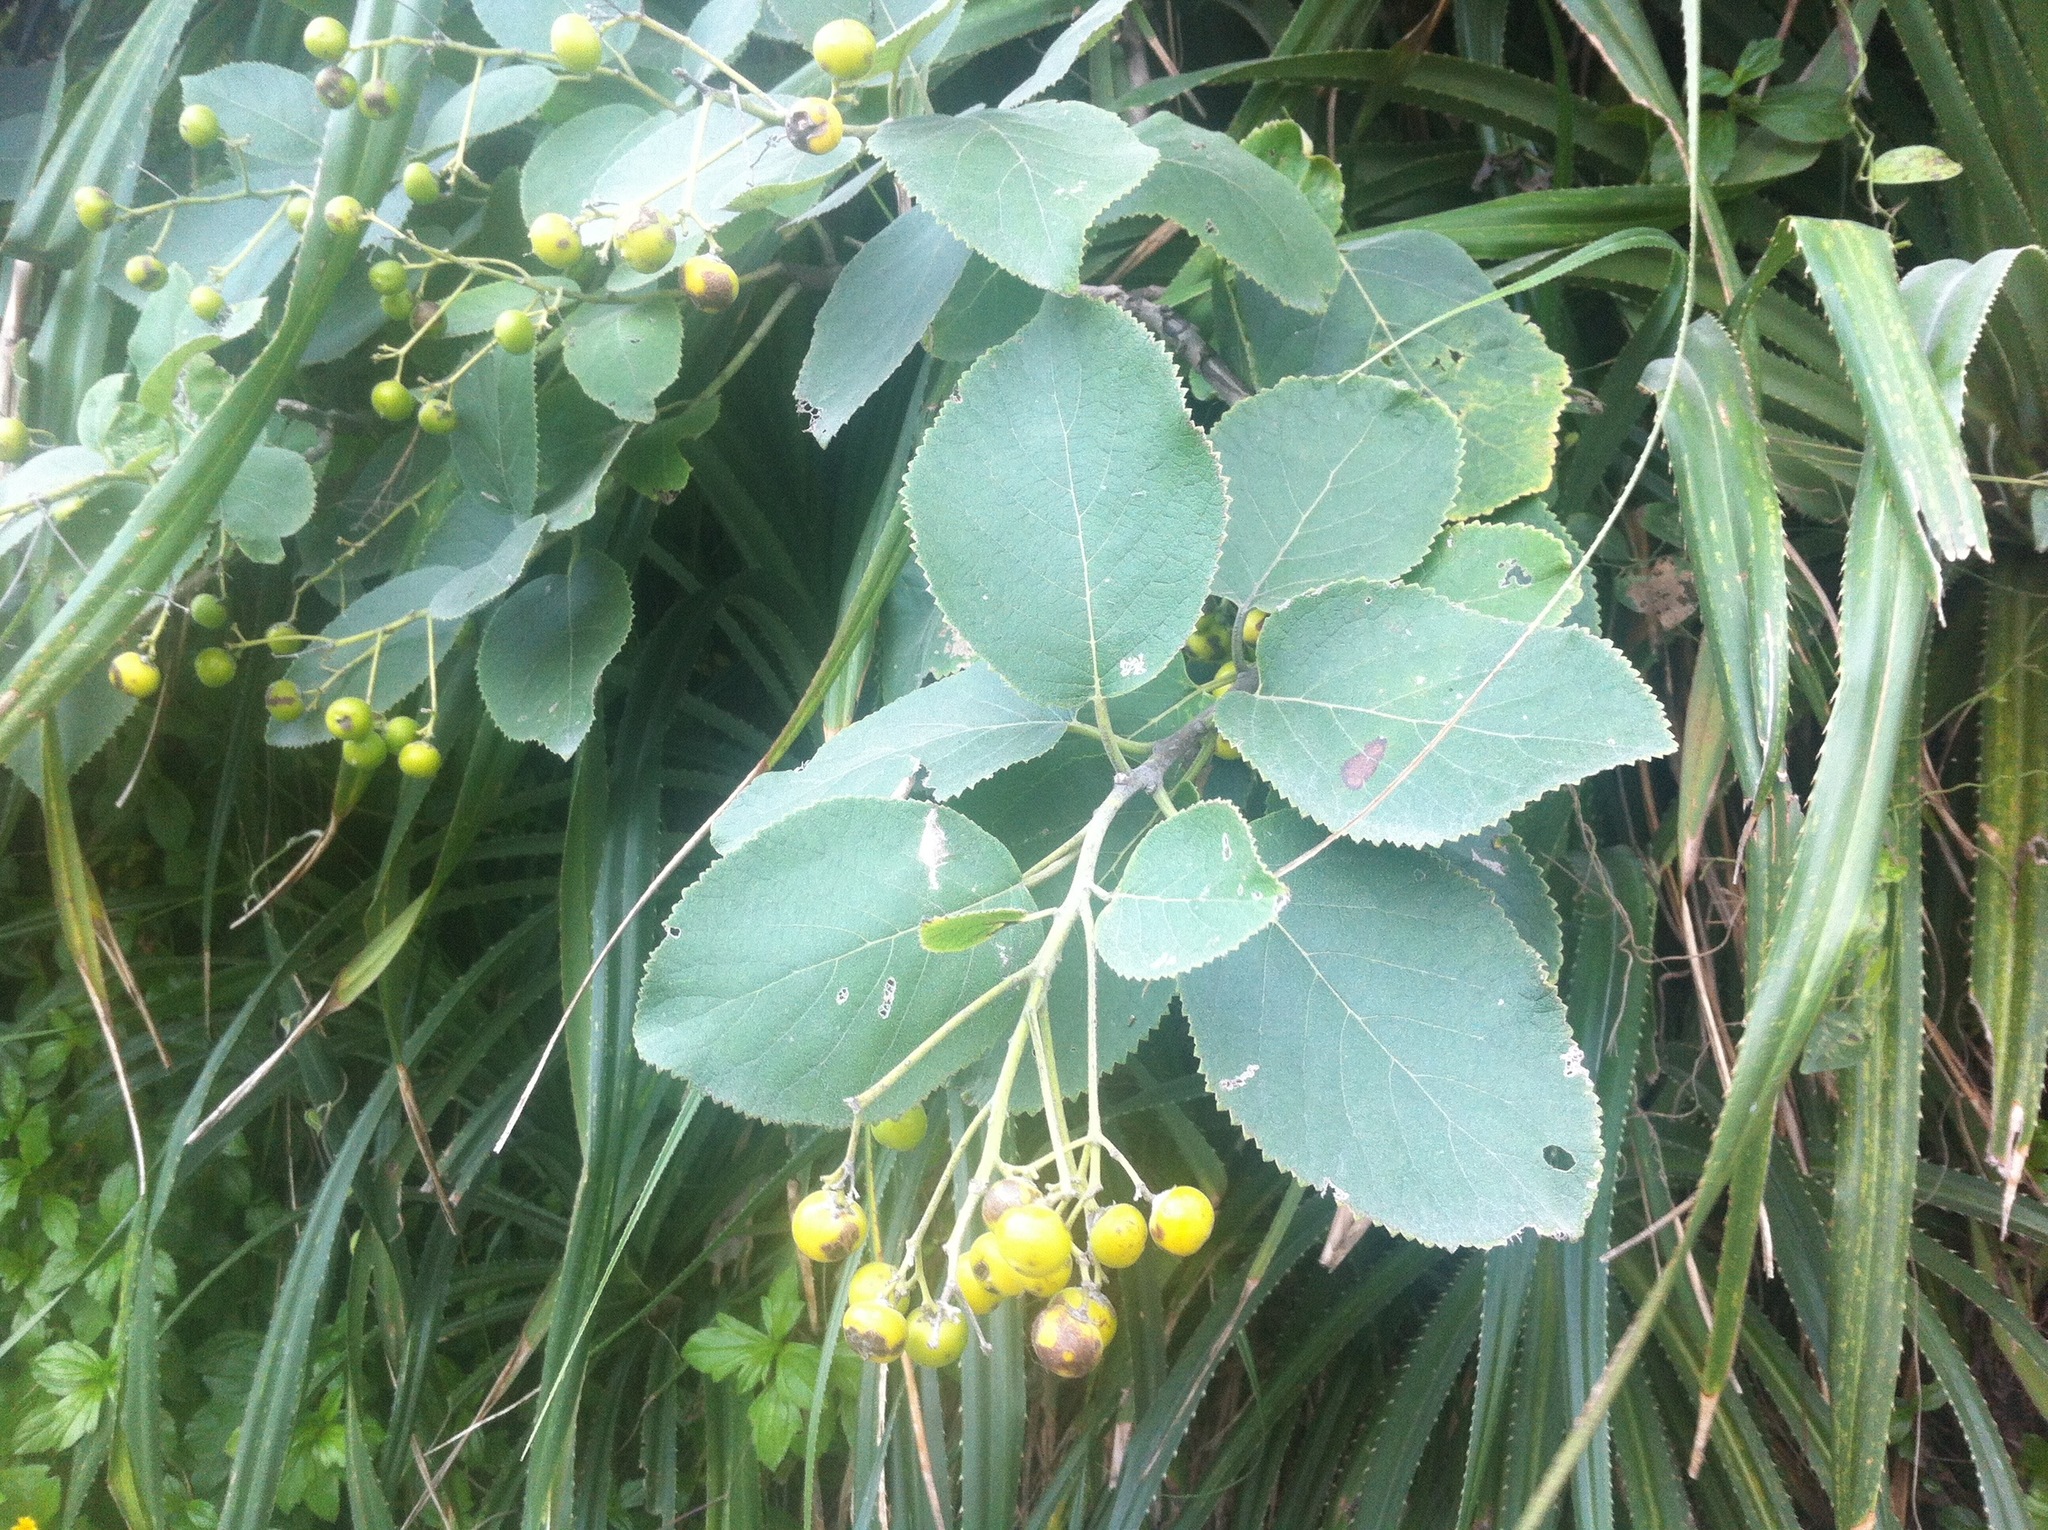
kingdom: Plantae
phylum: Tracheophyta
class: Magnoliopsida
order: Boraginales
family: Ehretiaceae
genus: Ehretia
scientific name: Ehretia dicksonii
